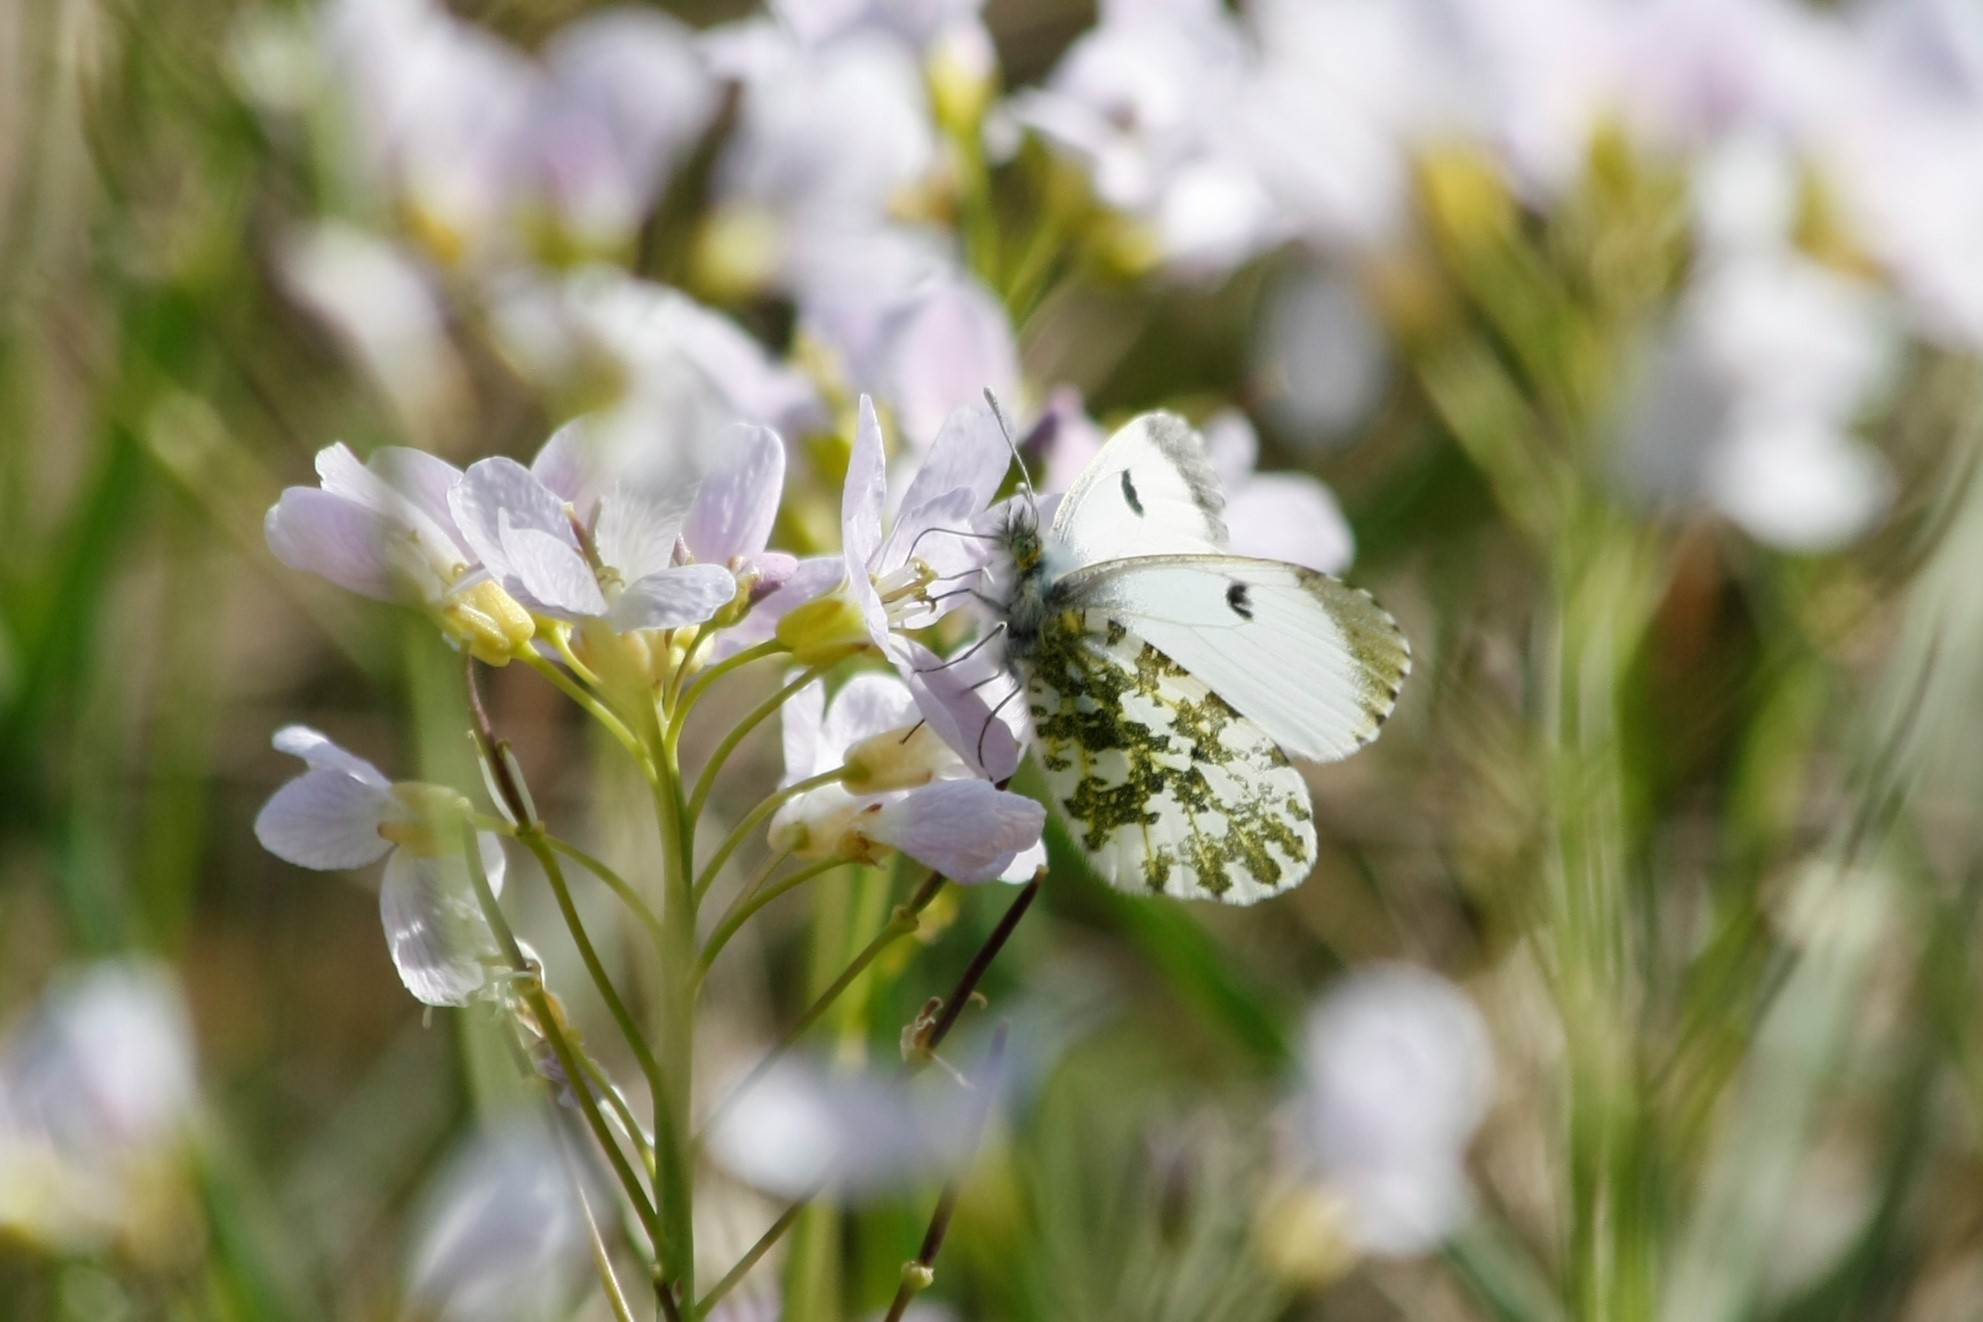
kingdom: Animalia
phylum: Arthropoda
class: Insecta
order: Lepidoptera
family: Pieridae
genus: Anthocharis
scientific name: Anthocharis cardamines
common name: Orange-tip
